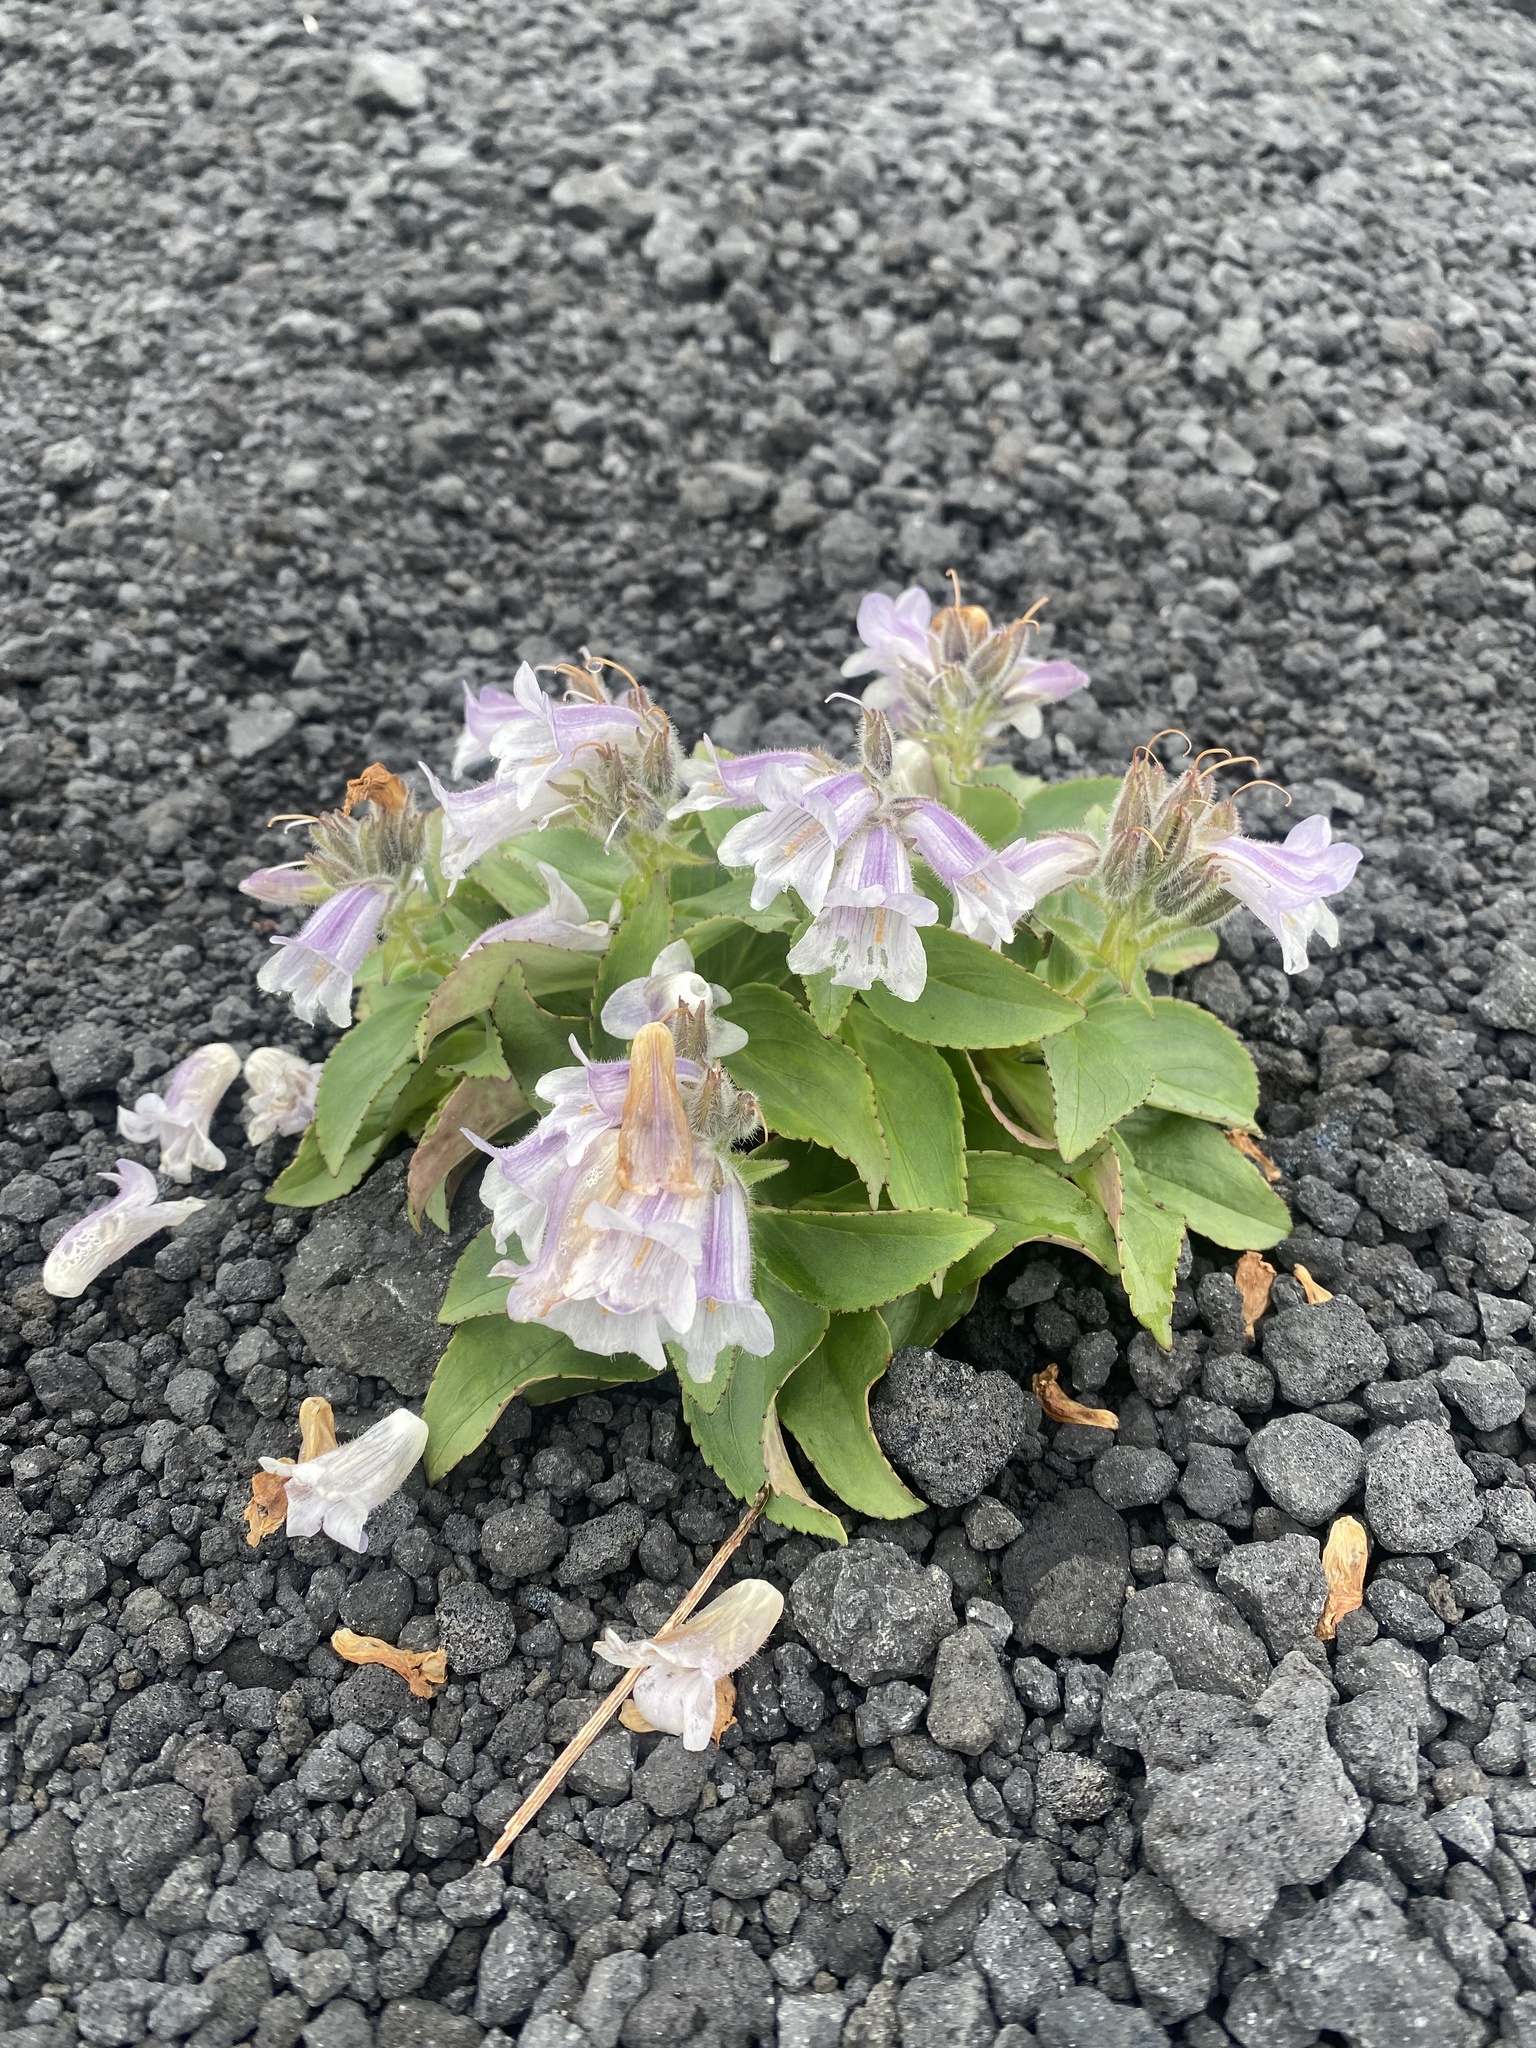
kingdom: Plantae
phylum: Tracheophyta
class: Magnoliopsida
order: Lamiales
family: Plantaginaceae
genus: Pennellianthus
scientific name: Pennellianthus frutescens
